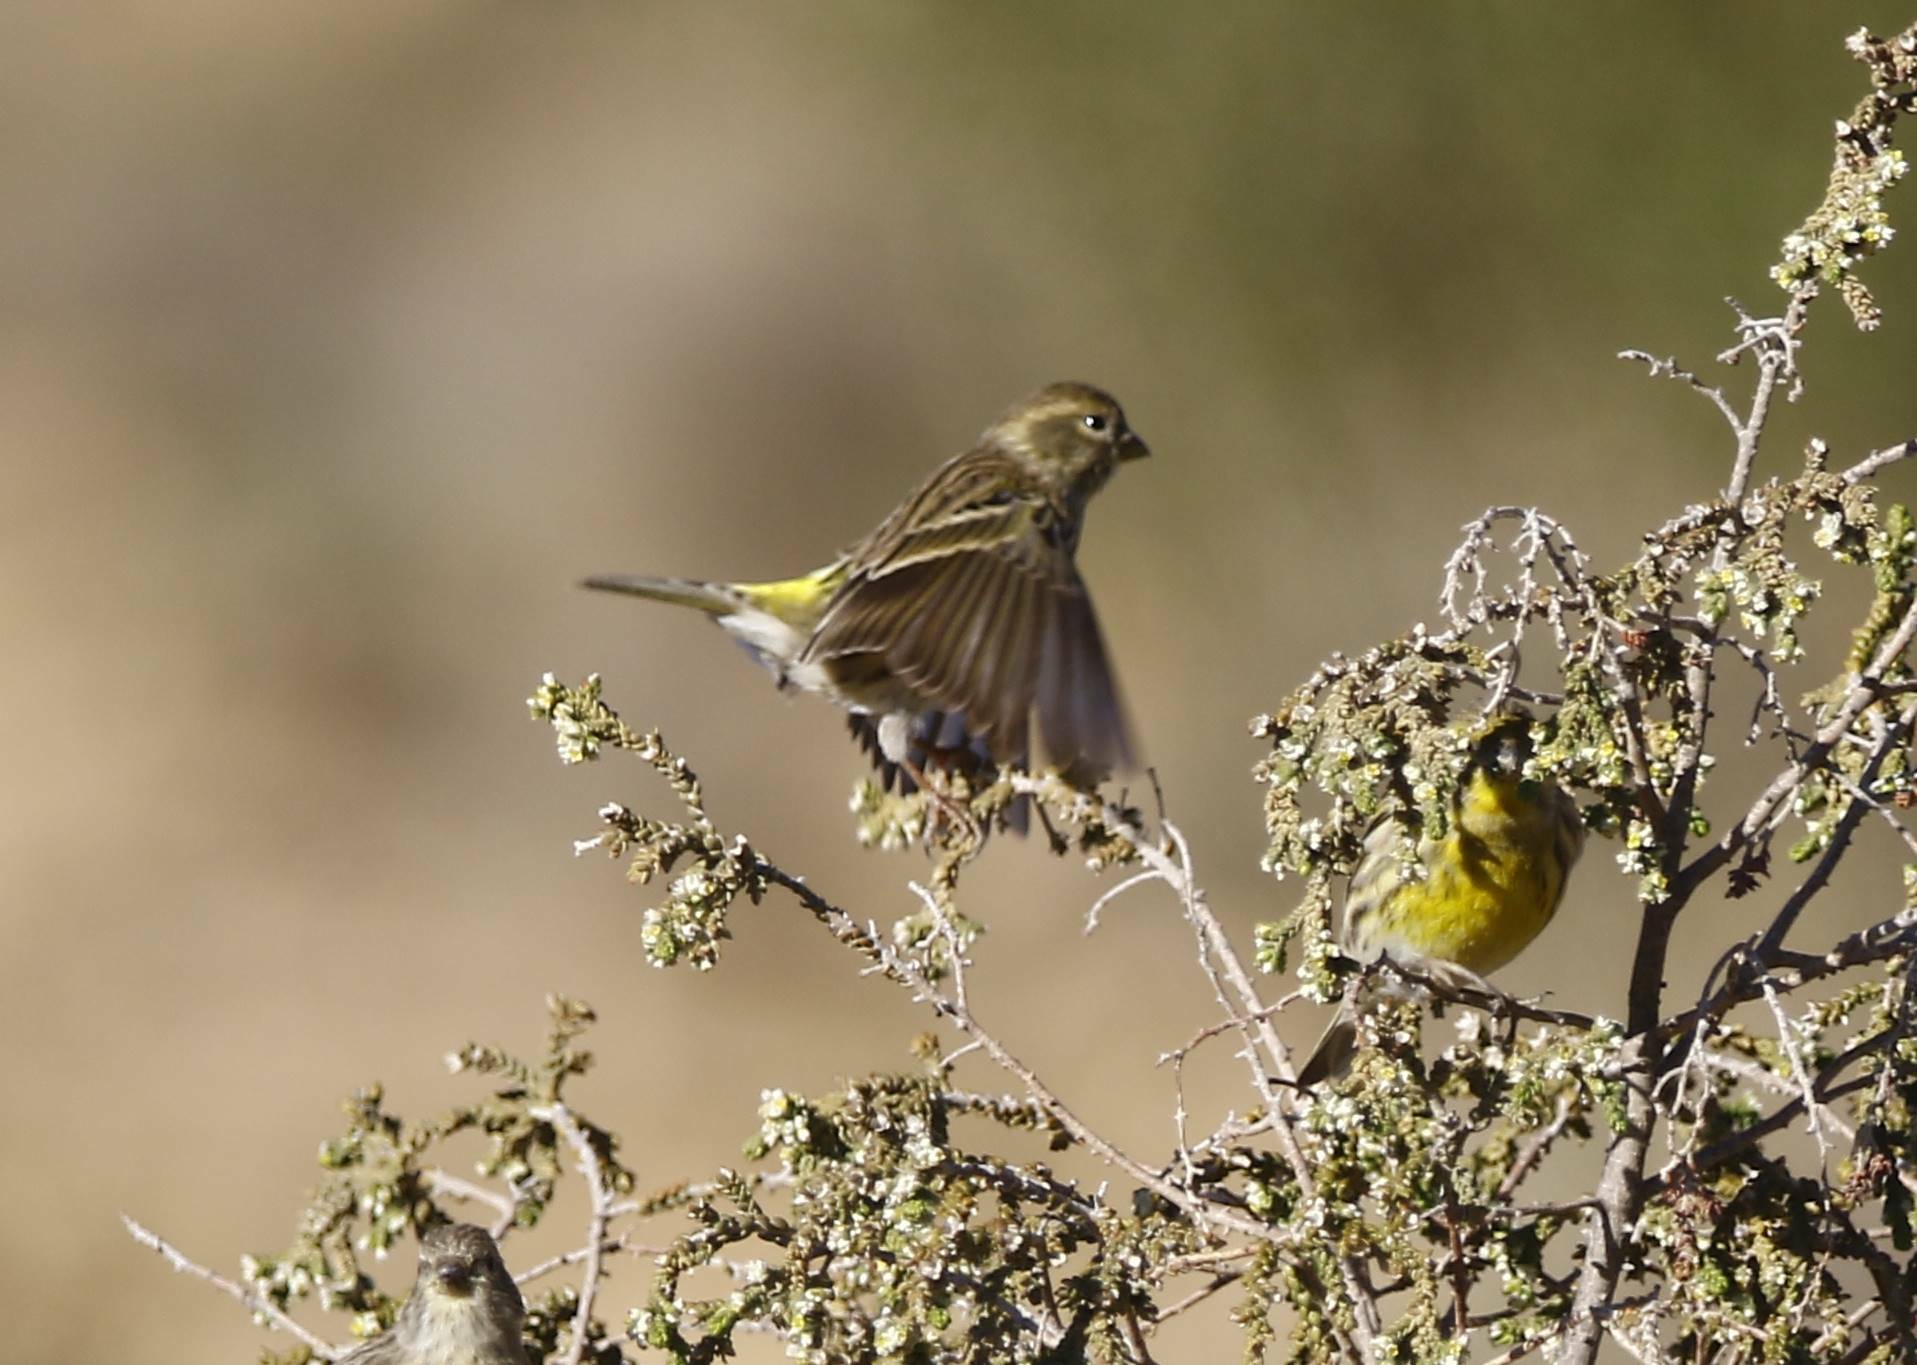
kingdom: Animalia
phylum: Chordata
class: Aves
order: Passeriformes
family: Fringillidae
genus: Serinus
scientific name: Serinus serinus
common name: European serin
